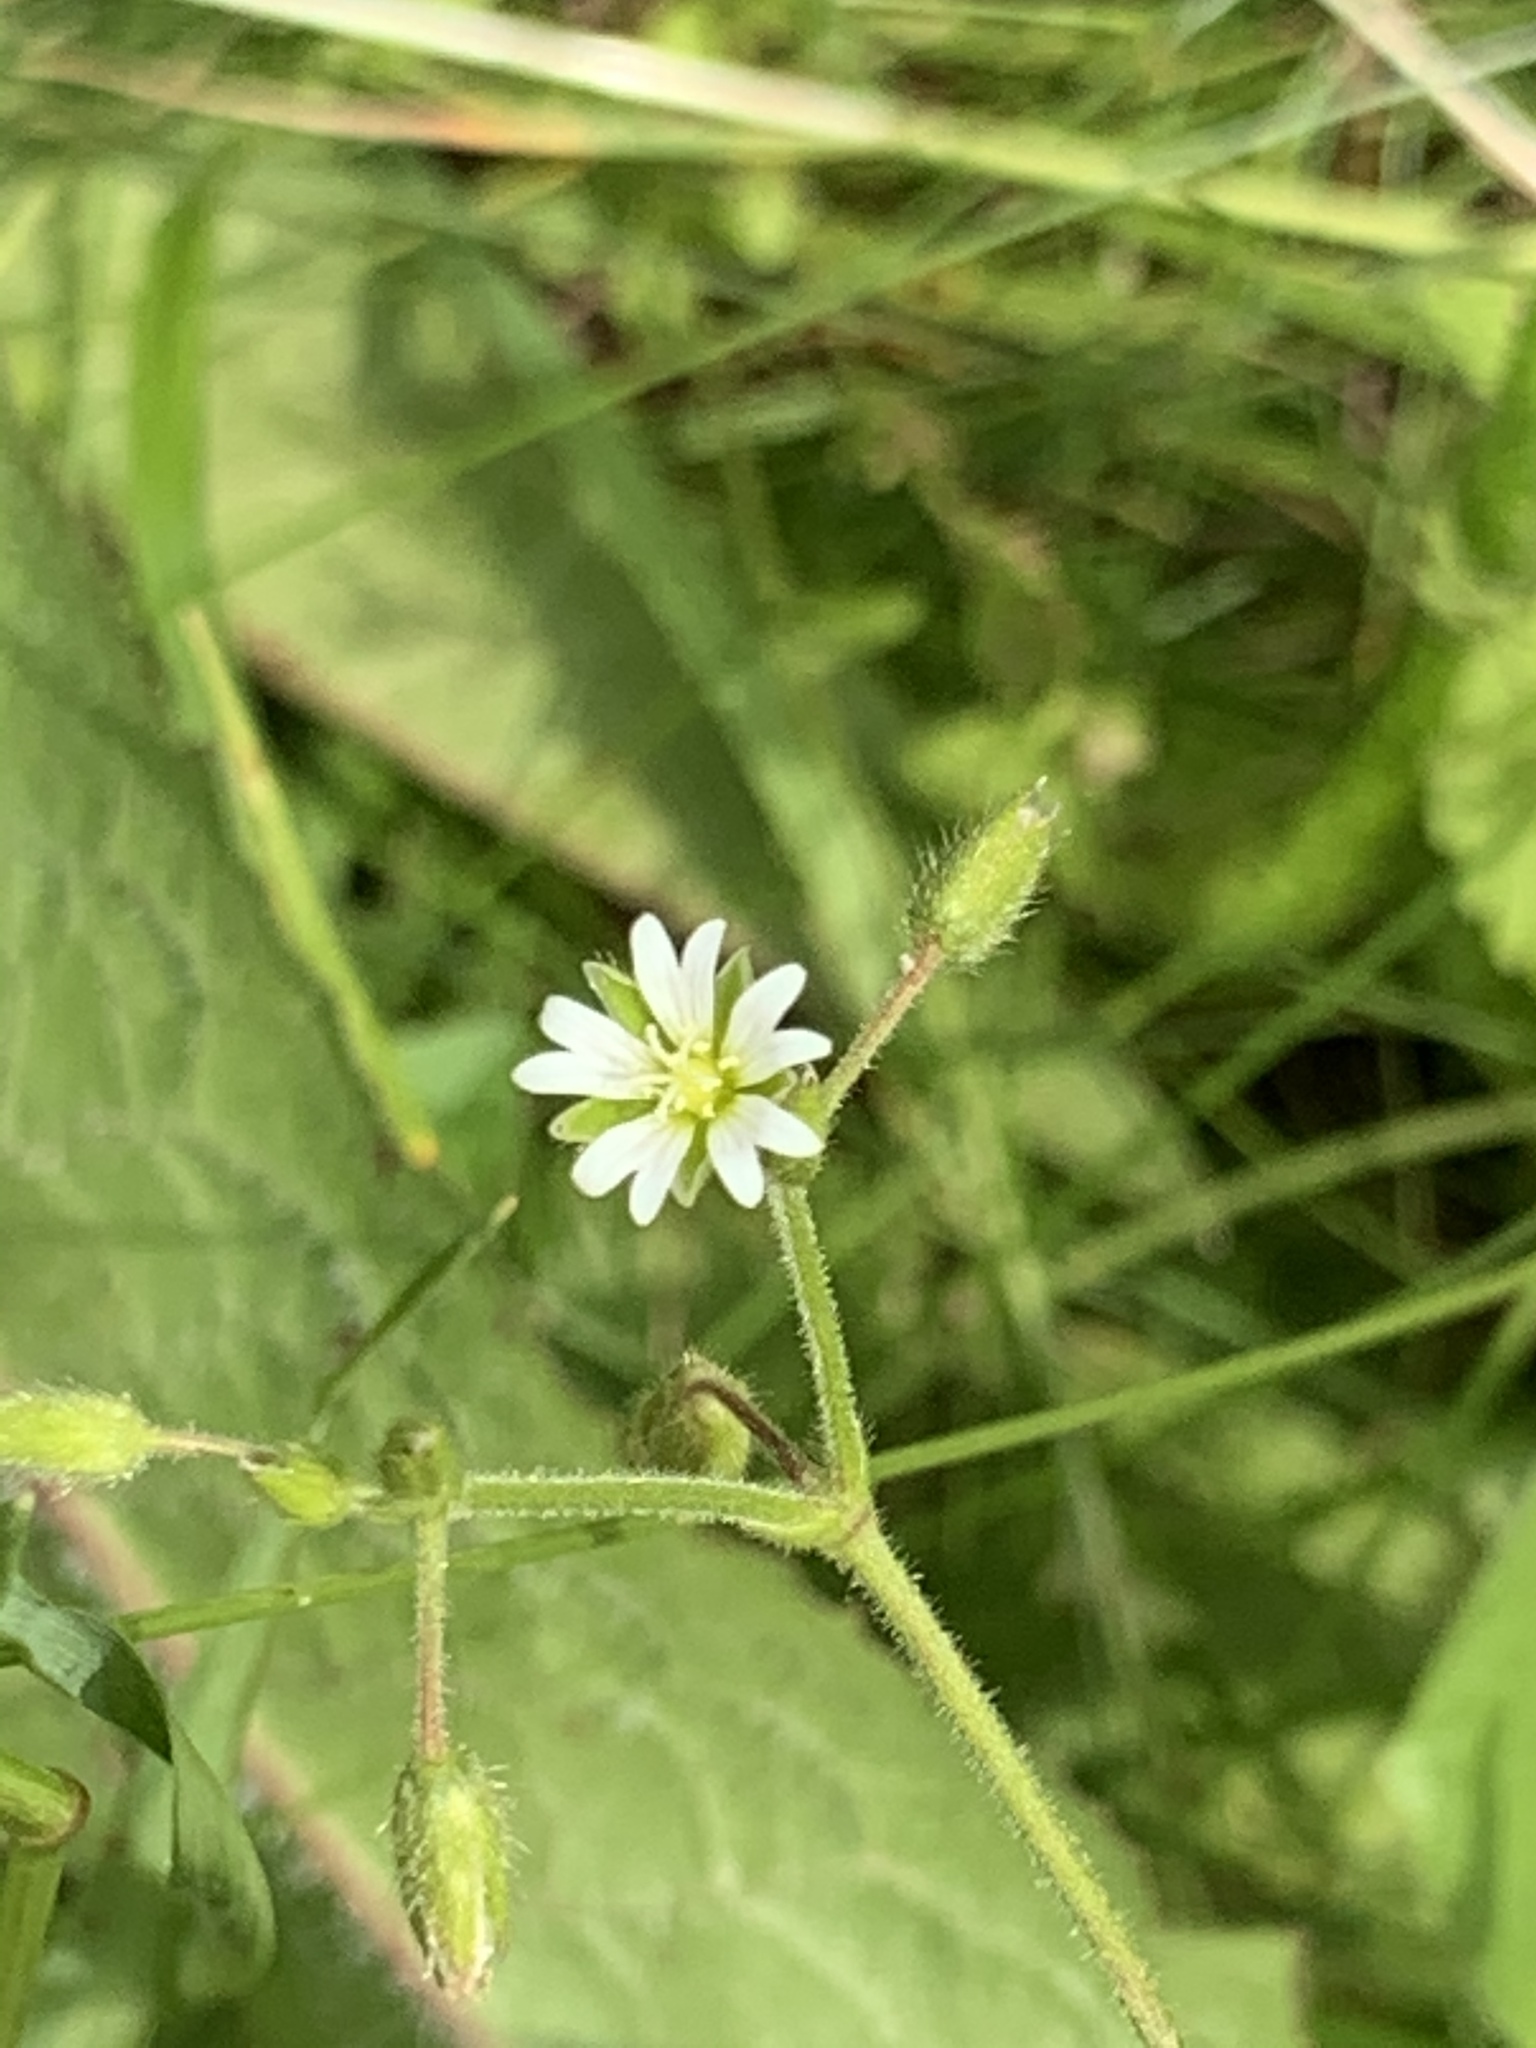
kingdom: Plantae
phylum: Tracheophyta
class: Magnoliopsida
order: Caryophyllales
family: Caryophyllaceae
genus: Cerastium
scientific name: Cerastium holosteoides
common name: Big chickweed
